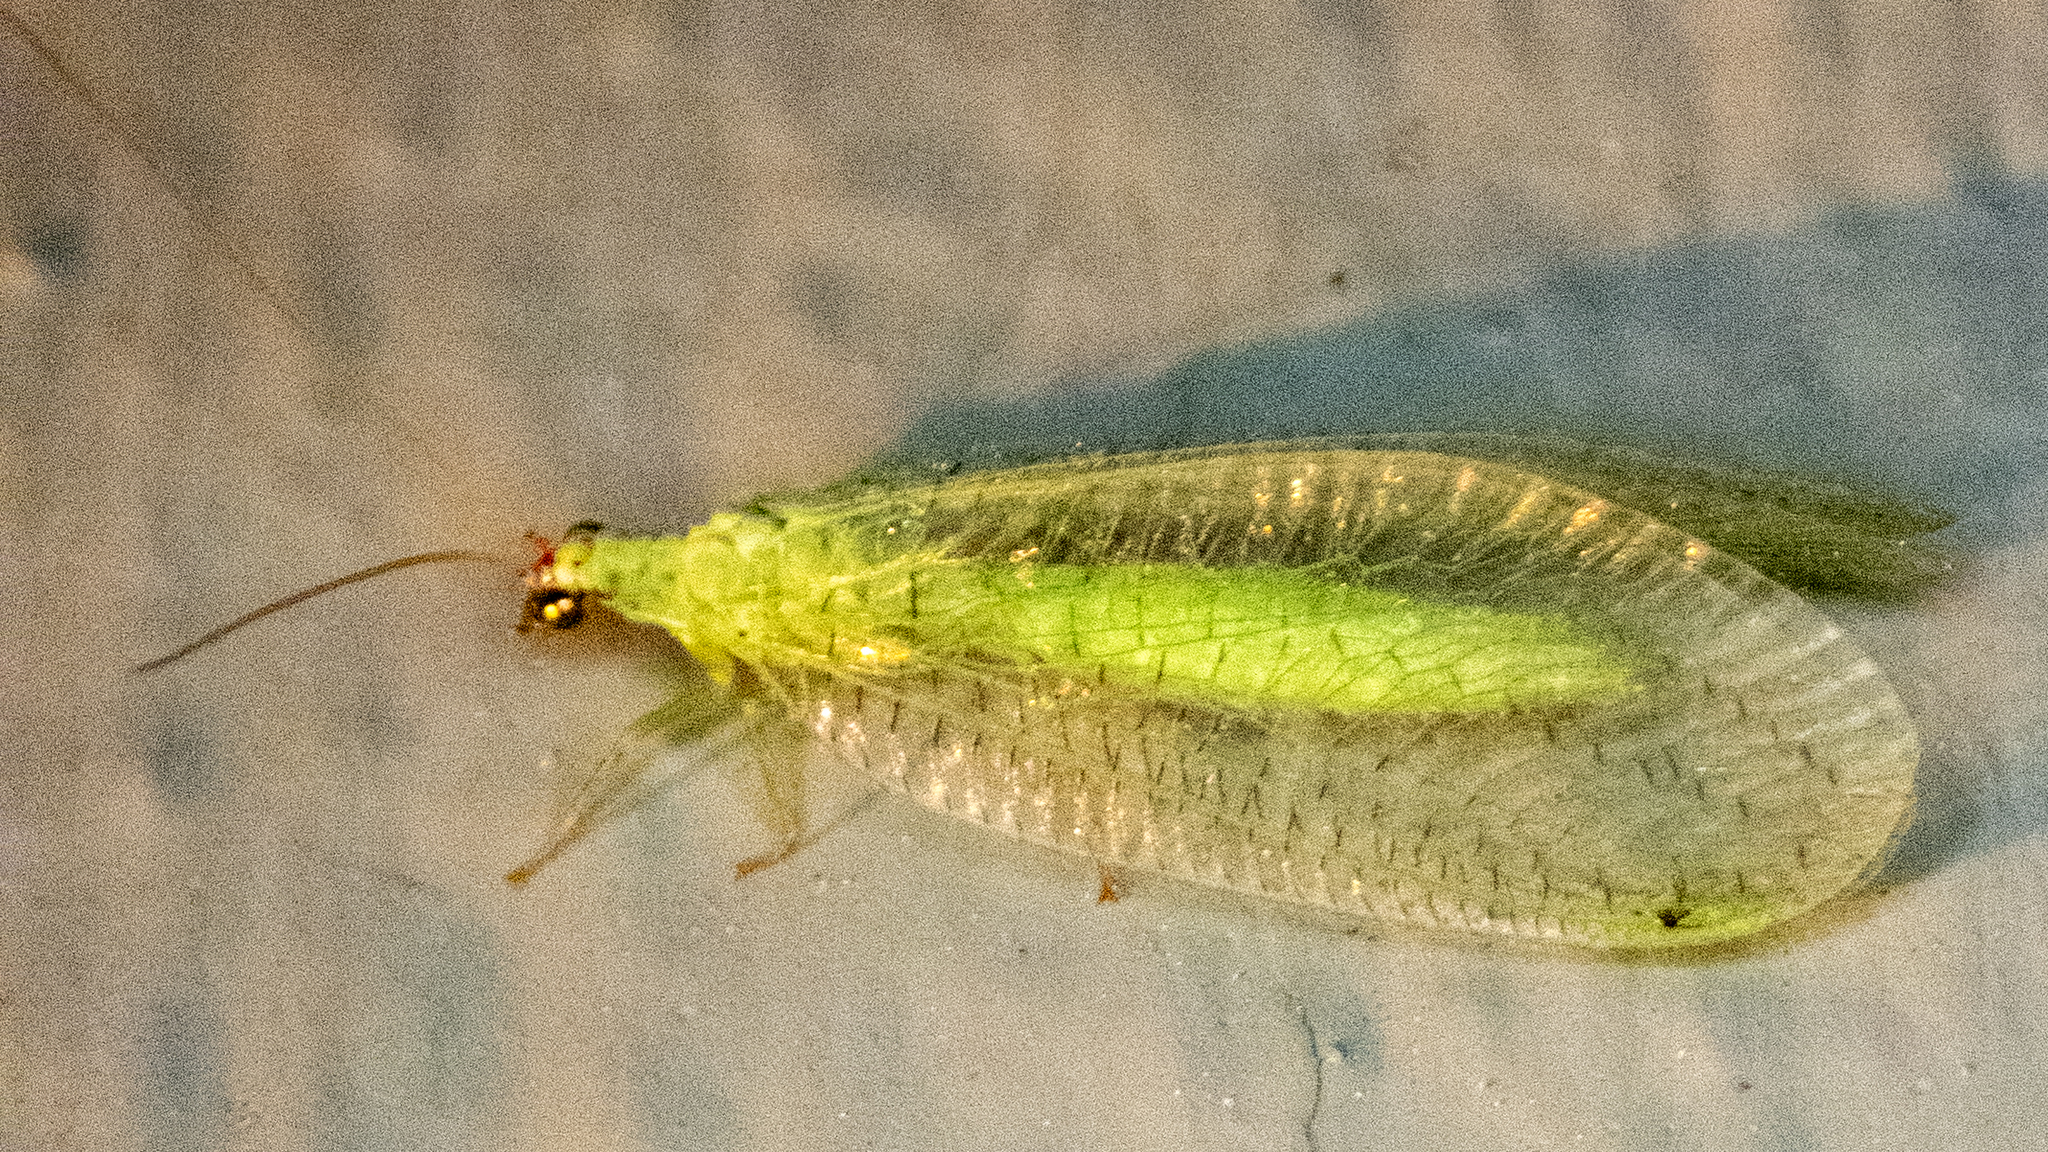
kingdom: Animalia
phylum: Arthropoda
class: Insecta
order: Neuroptera
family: Chrysopidae
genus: Chrysopa
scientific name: Chrysopa oculata
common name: Golden-eyed lacewing
